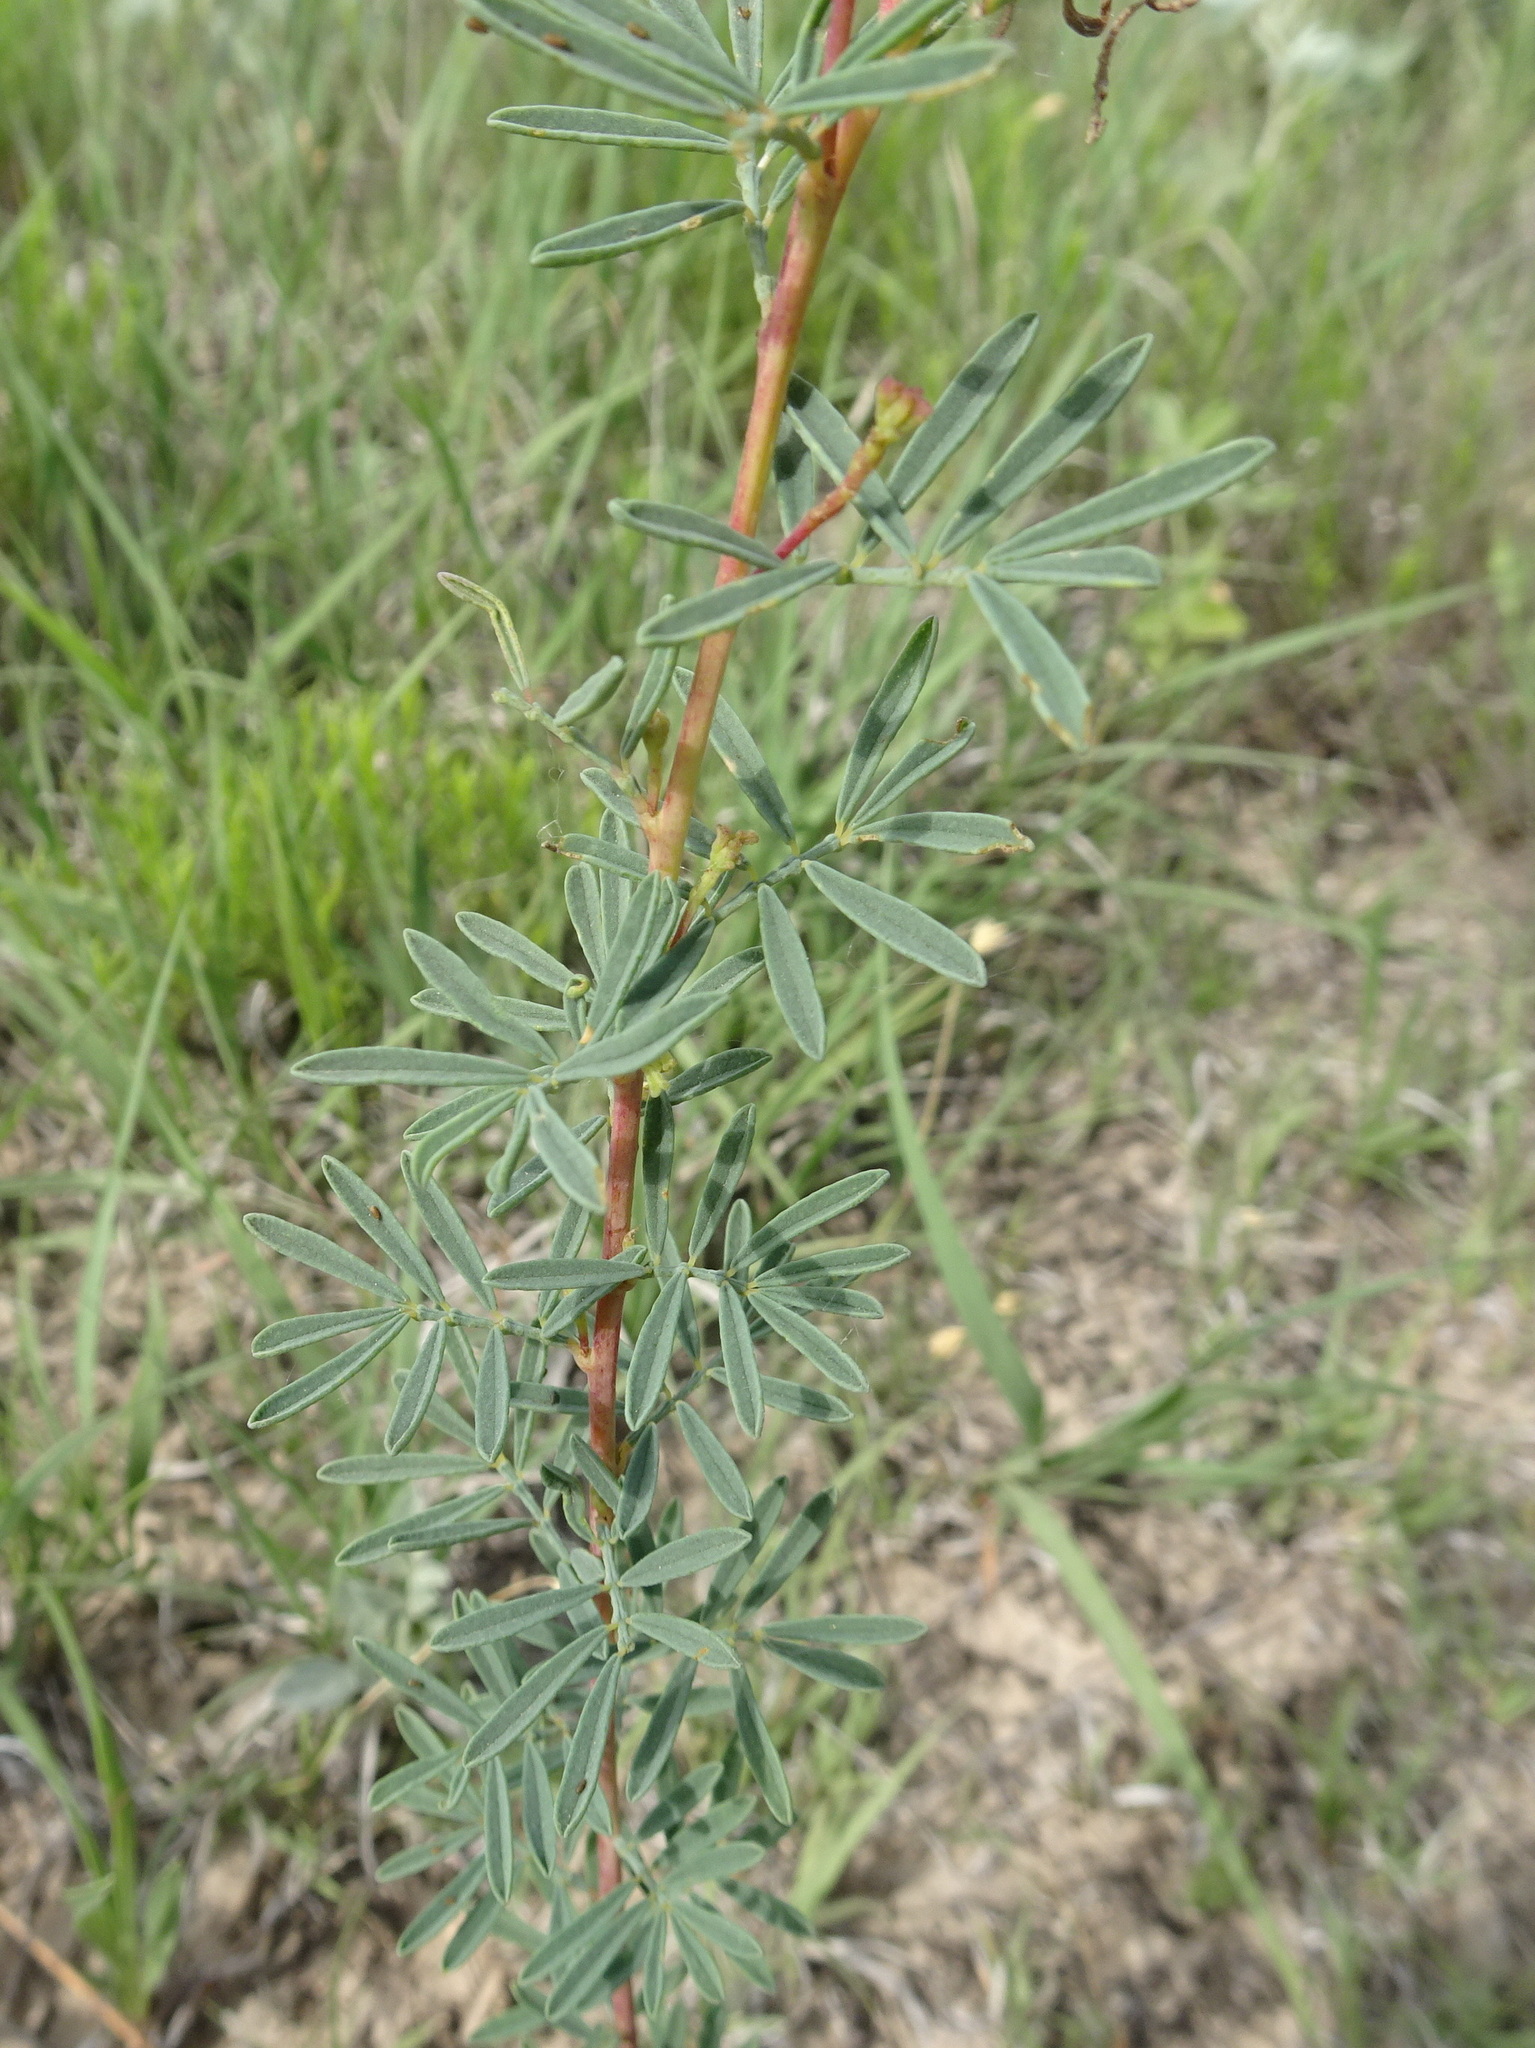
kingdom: Plantae
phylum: Tracheophyta
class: Magnoliopsida
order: Fabales
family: Fabaceae
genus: Dalea
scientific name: Dalea enneandra
